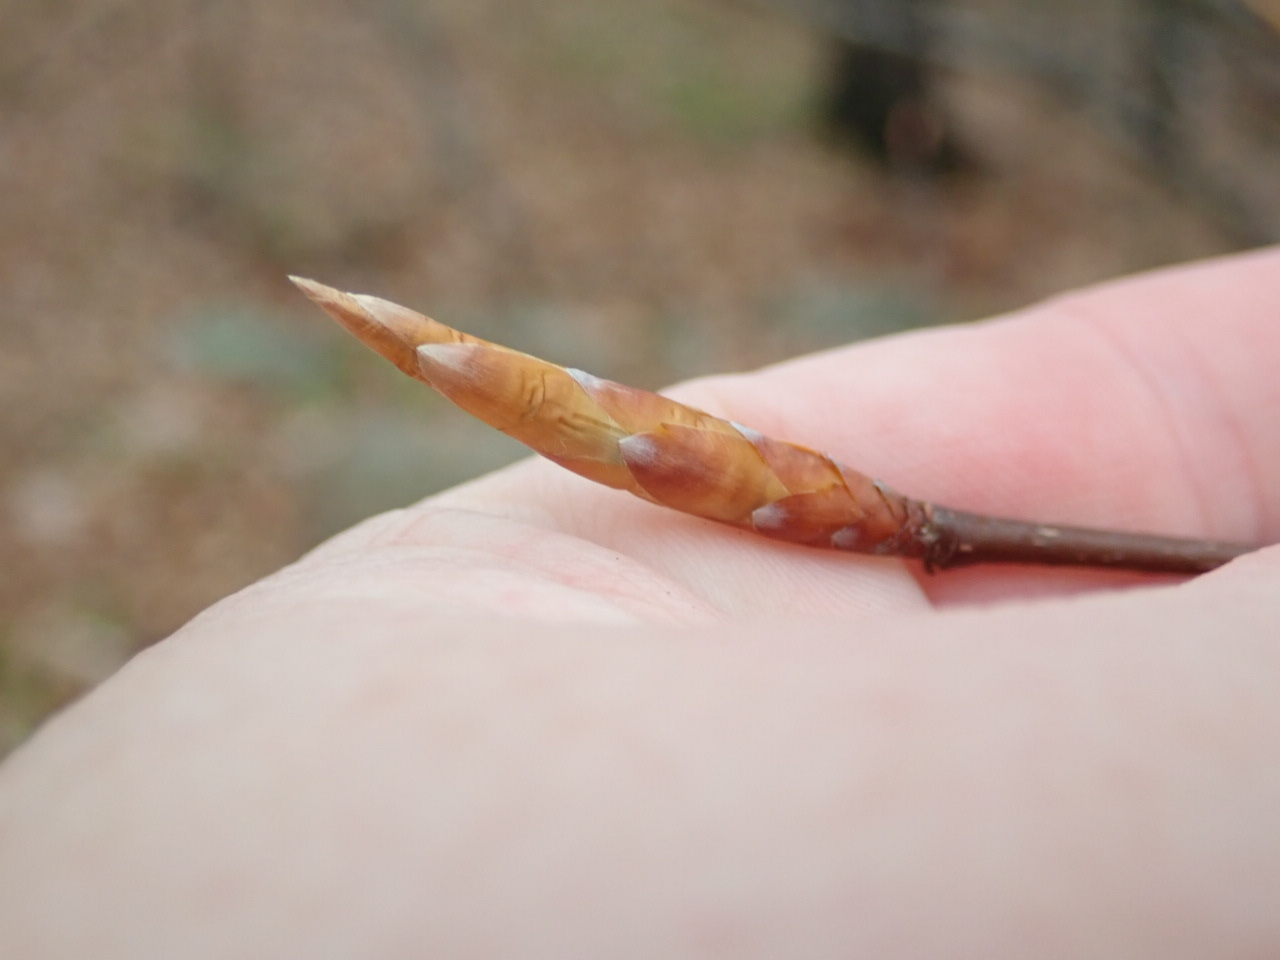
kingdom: Plantae
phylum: Tracheophyta
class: Magnoliopsida
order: Fagales
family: Fagaceae
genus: Fagus
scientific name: Fagus grandifolia
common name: American beech
